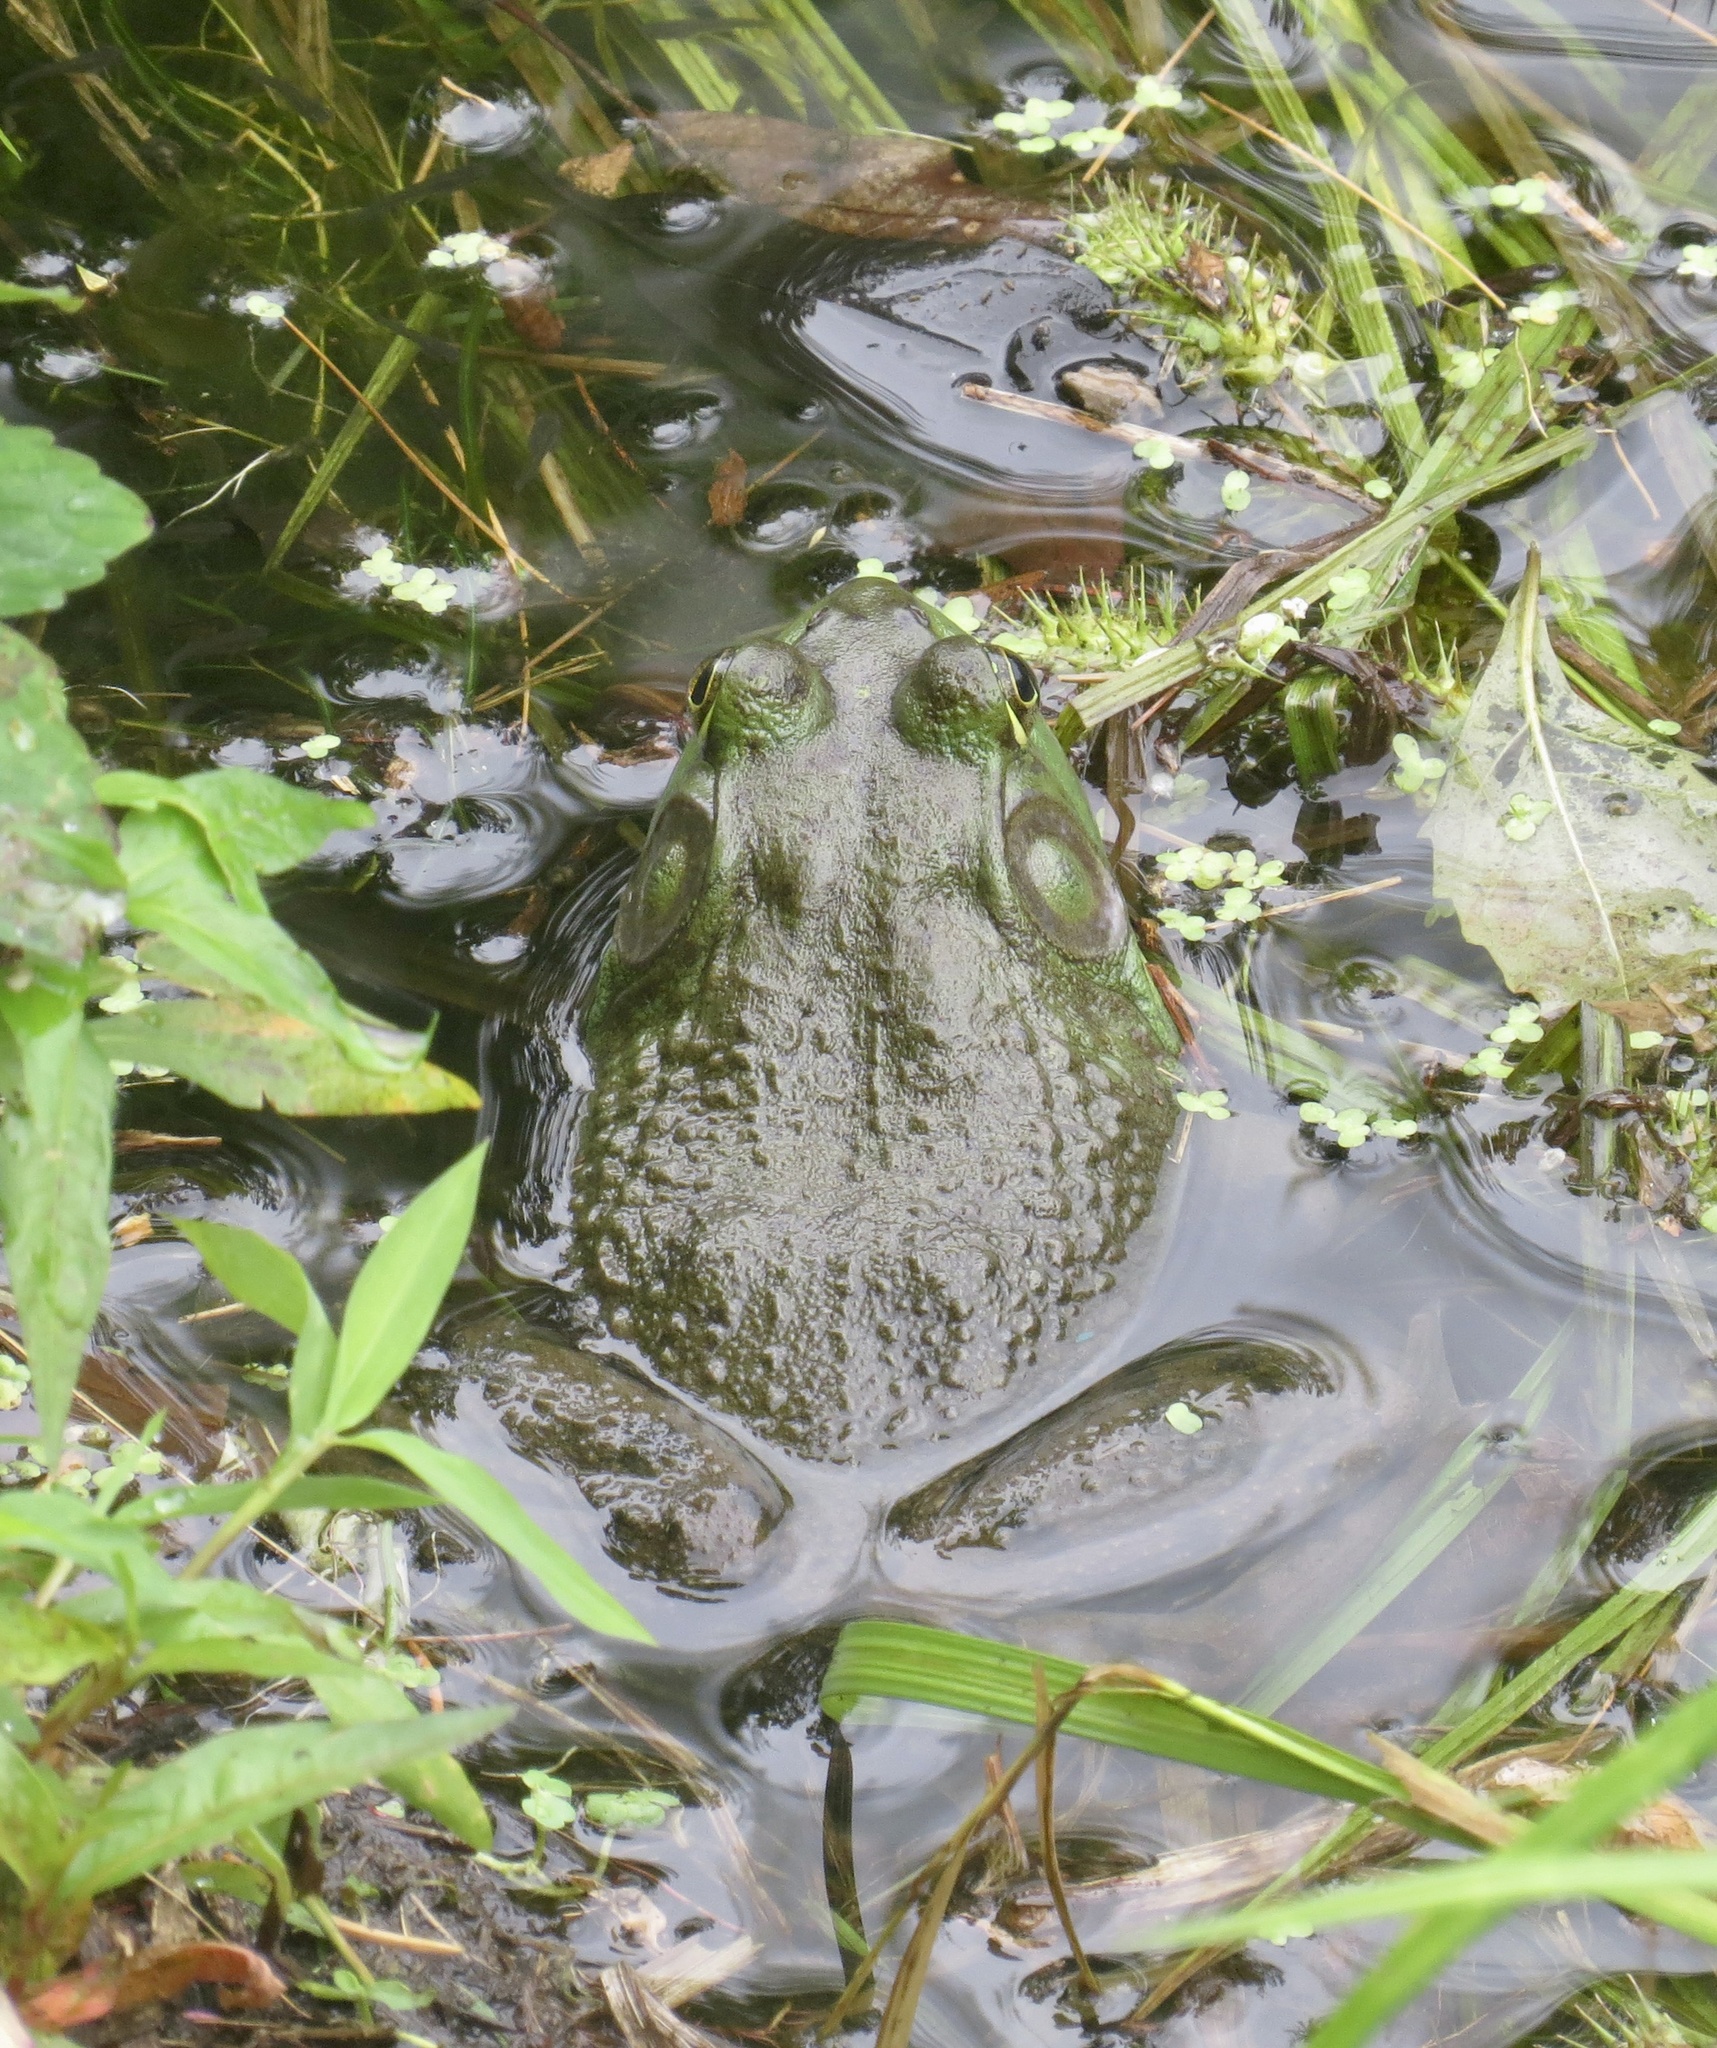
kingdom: Animalia
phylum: Chordata
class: Amphibia
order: Anura
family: Ranidae
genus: Lithobates
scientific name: Lithobates catesbeianus
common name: American bullfrog
